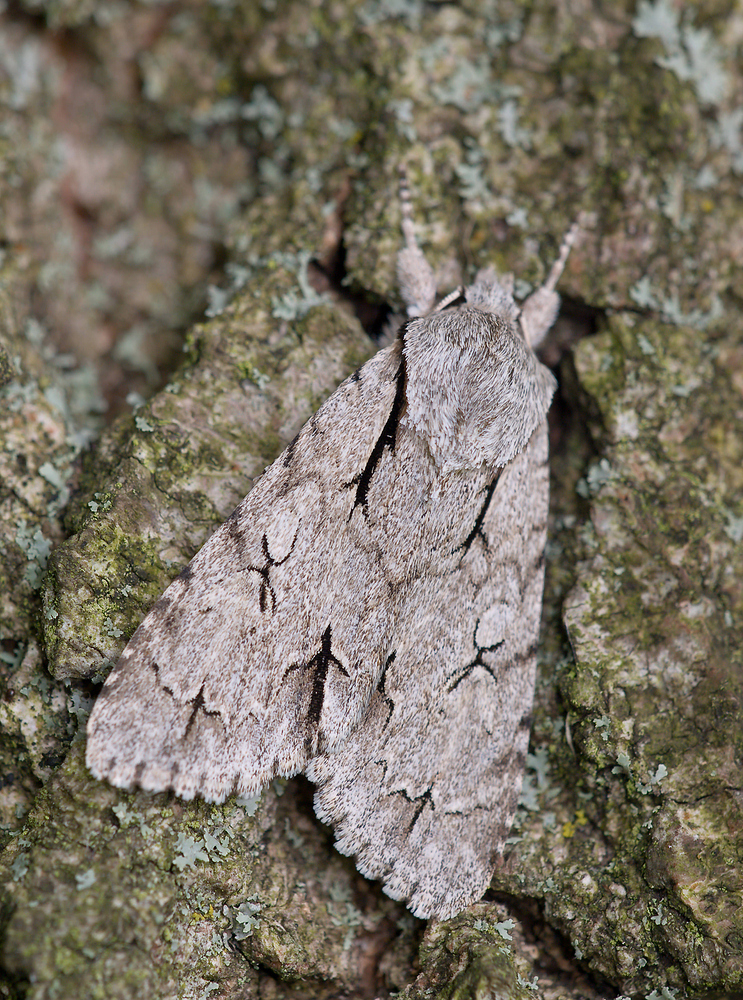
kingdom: Animalia
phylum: Arthropoda
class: Insecta
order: Lepidoptera
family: Noctuidae
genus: Acronicta
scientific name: Acronicta psi
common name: Grey dagger
